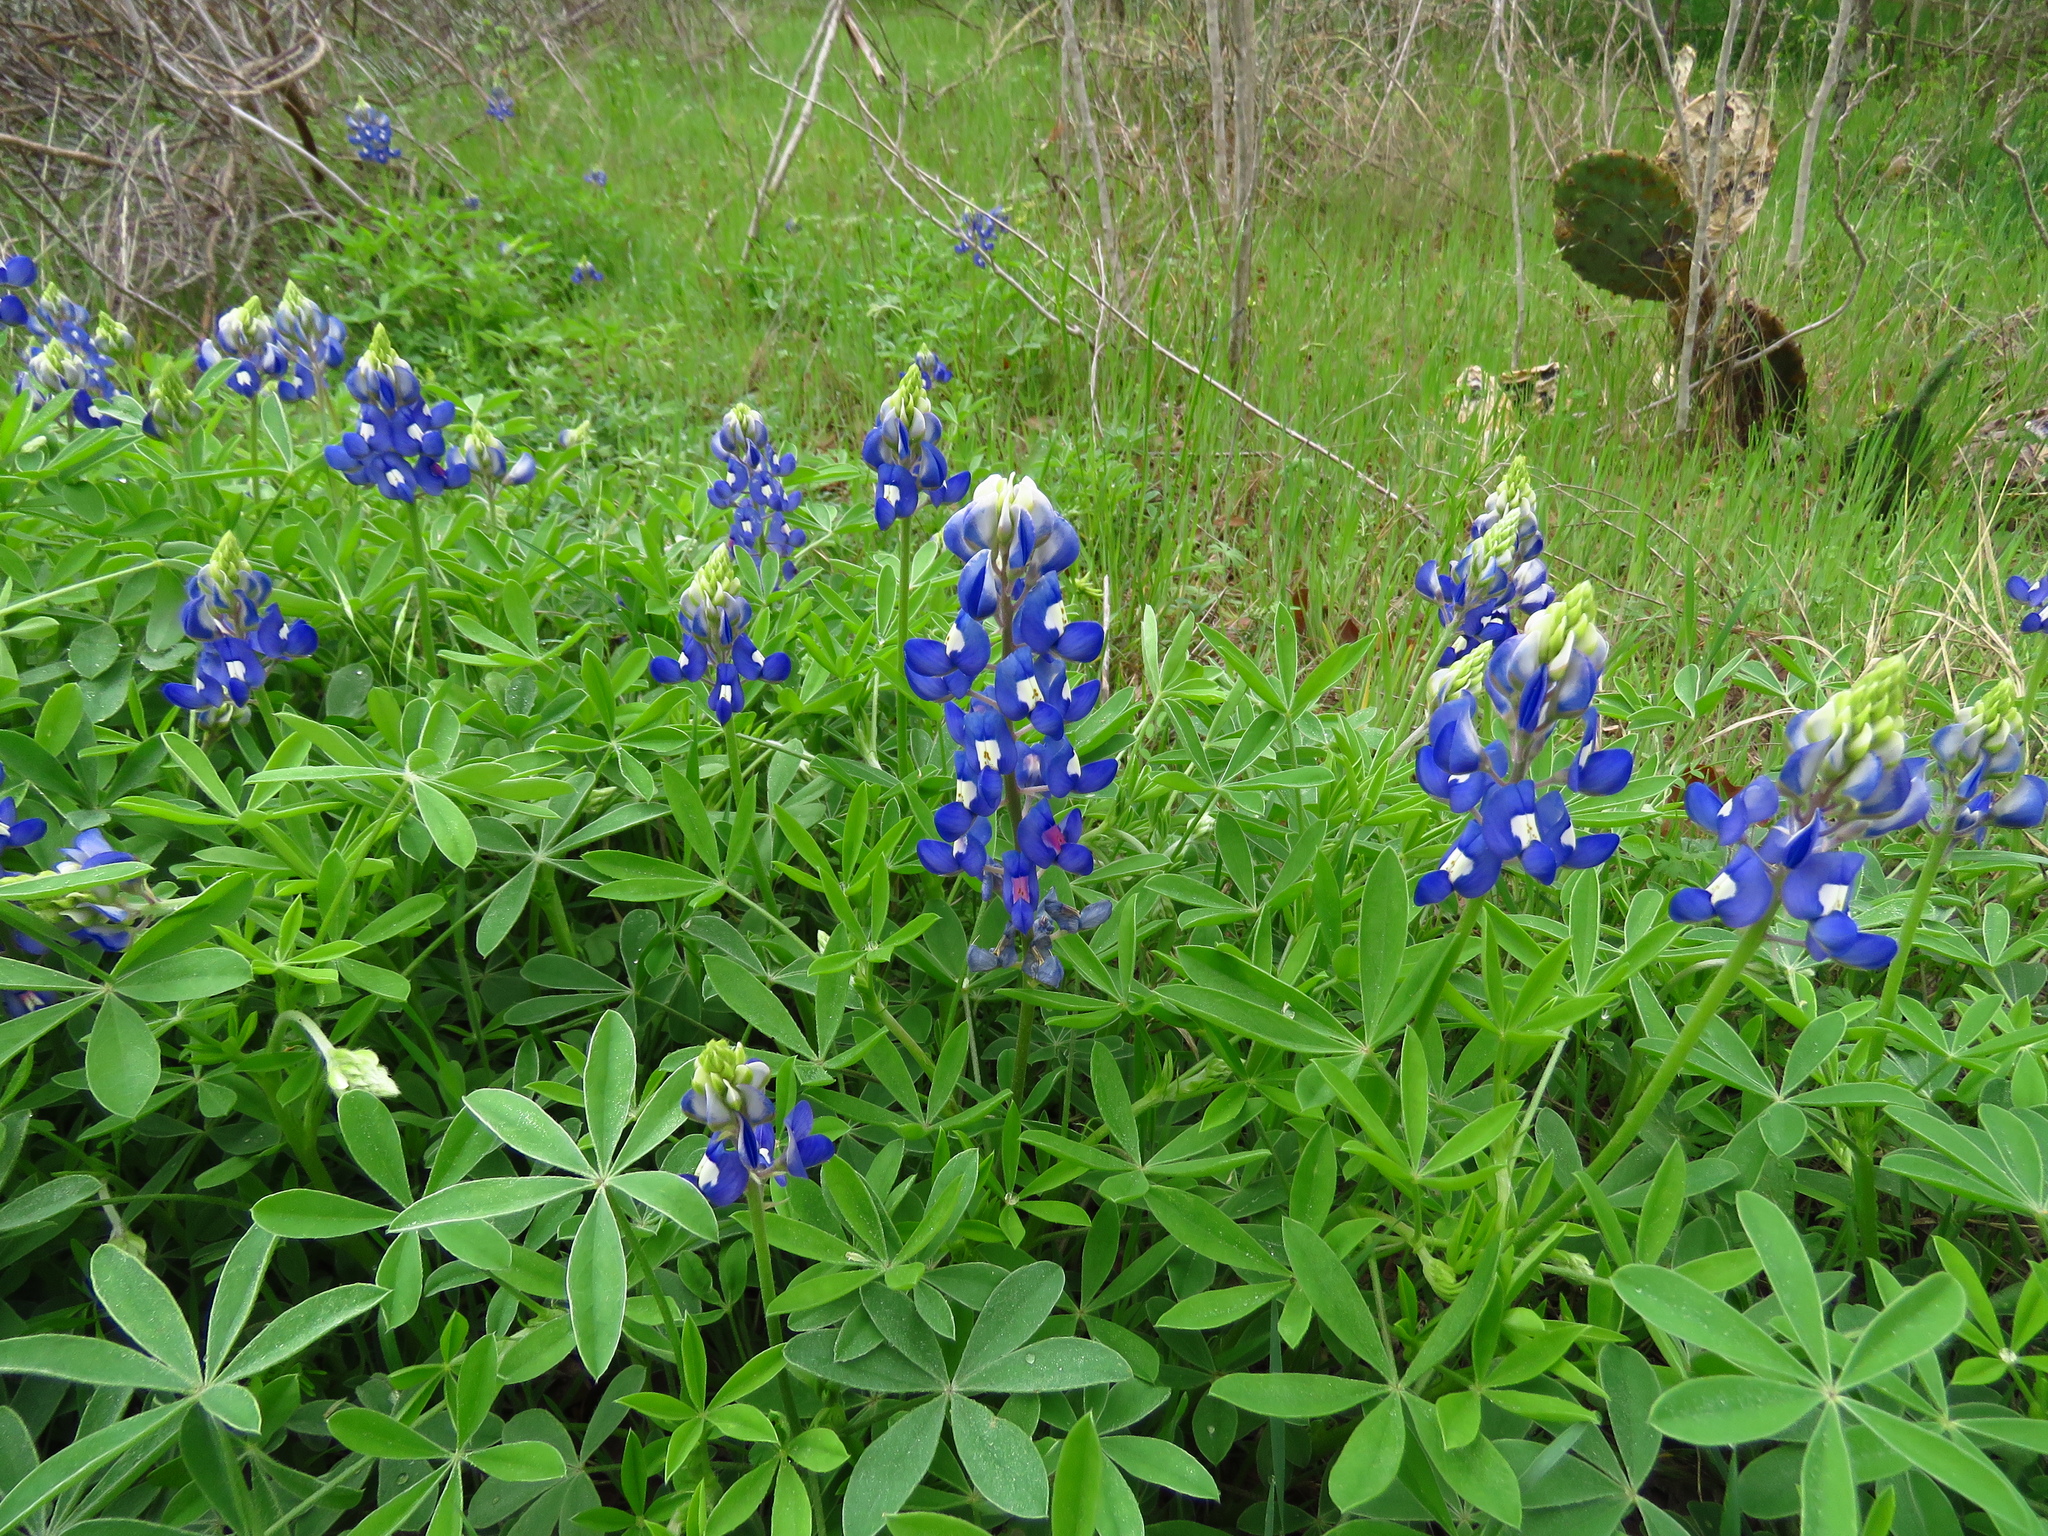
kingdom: Plantae
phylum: Tracheophyta
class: Magnoliopsida
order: Fabales
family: Fabaceae
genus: Lupinus
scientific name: Lupinus texensis
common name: Texas bluebonnet
